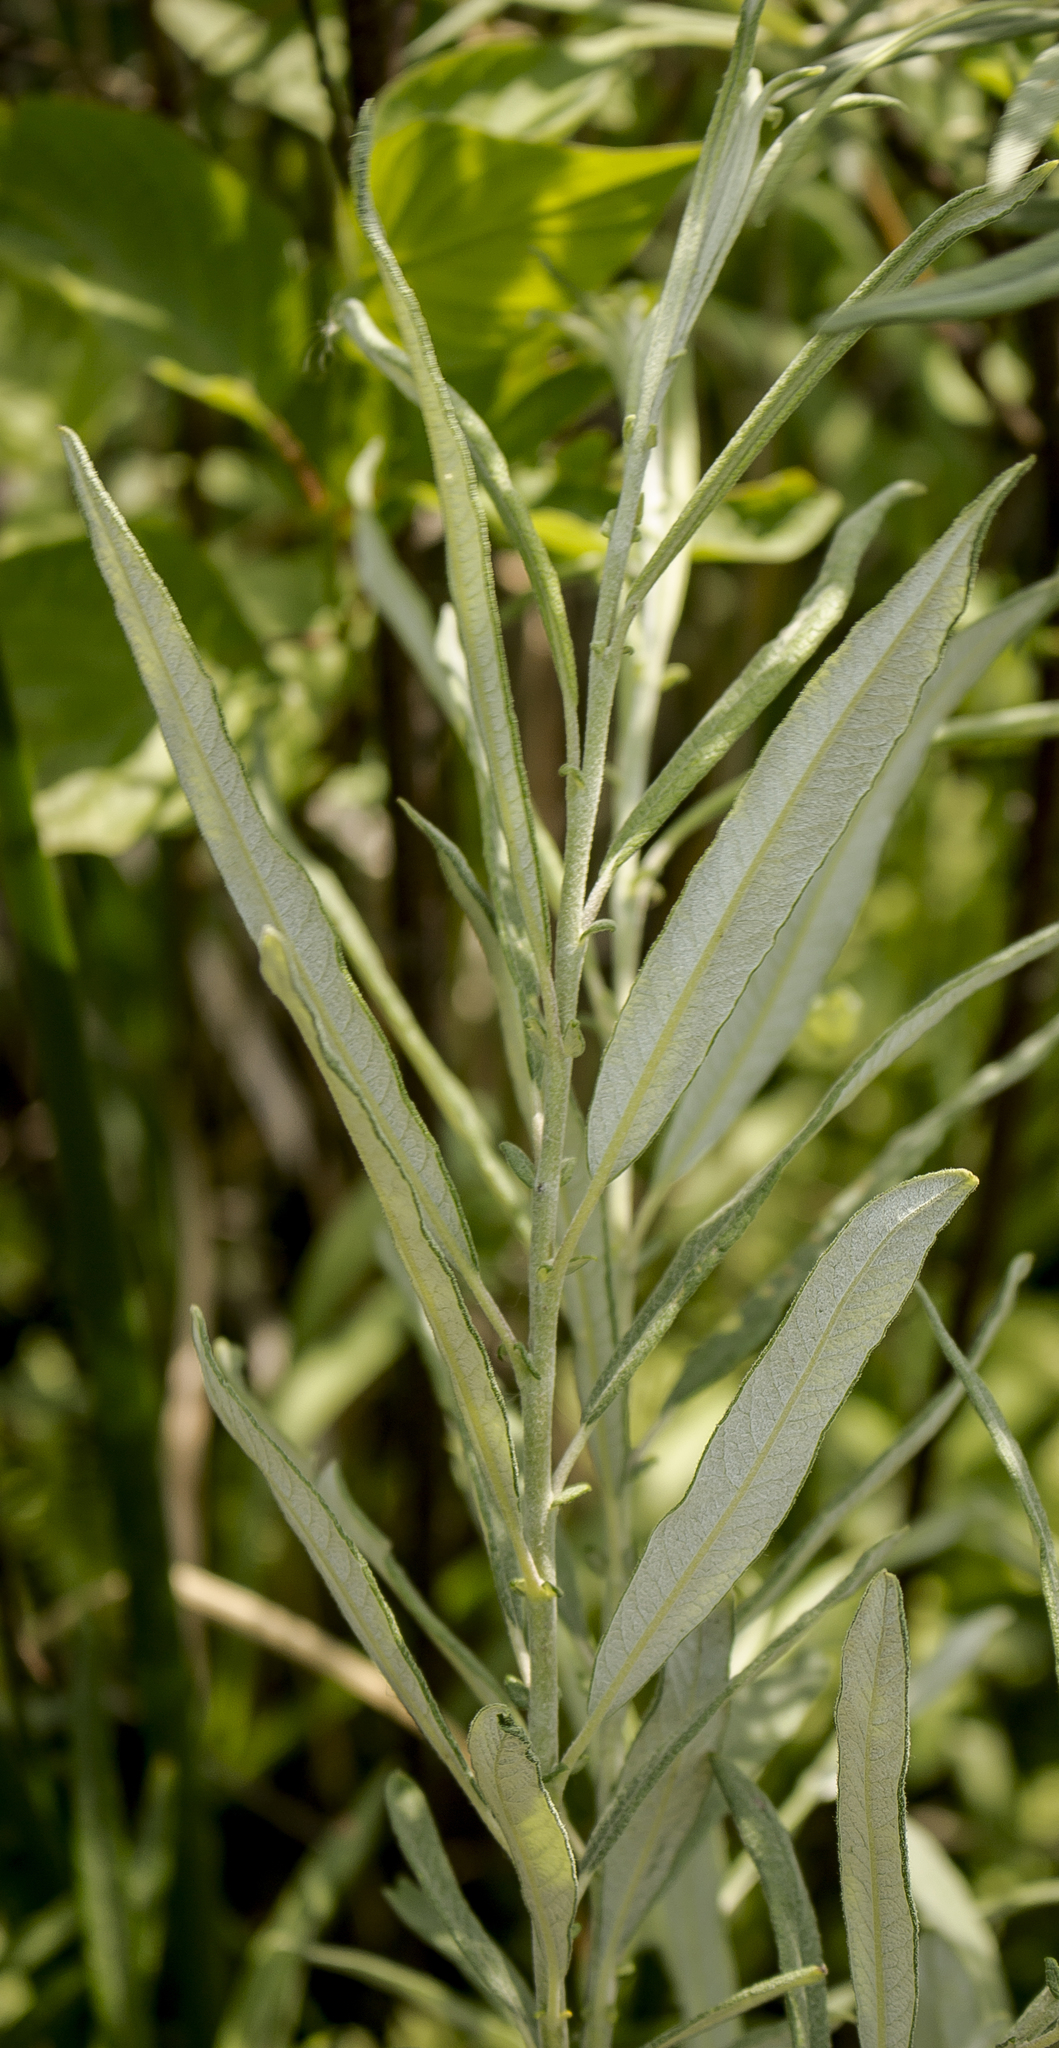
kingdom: Plantae
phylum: Tracheophyta
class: Magnoliopsida
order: Malpighiales
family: Salicaceae
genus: Salix
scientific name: Salix candida
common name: Hoary willow
